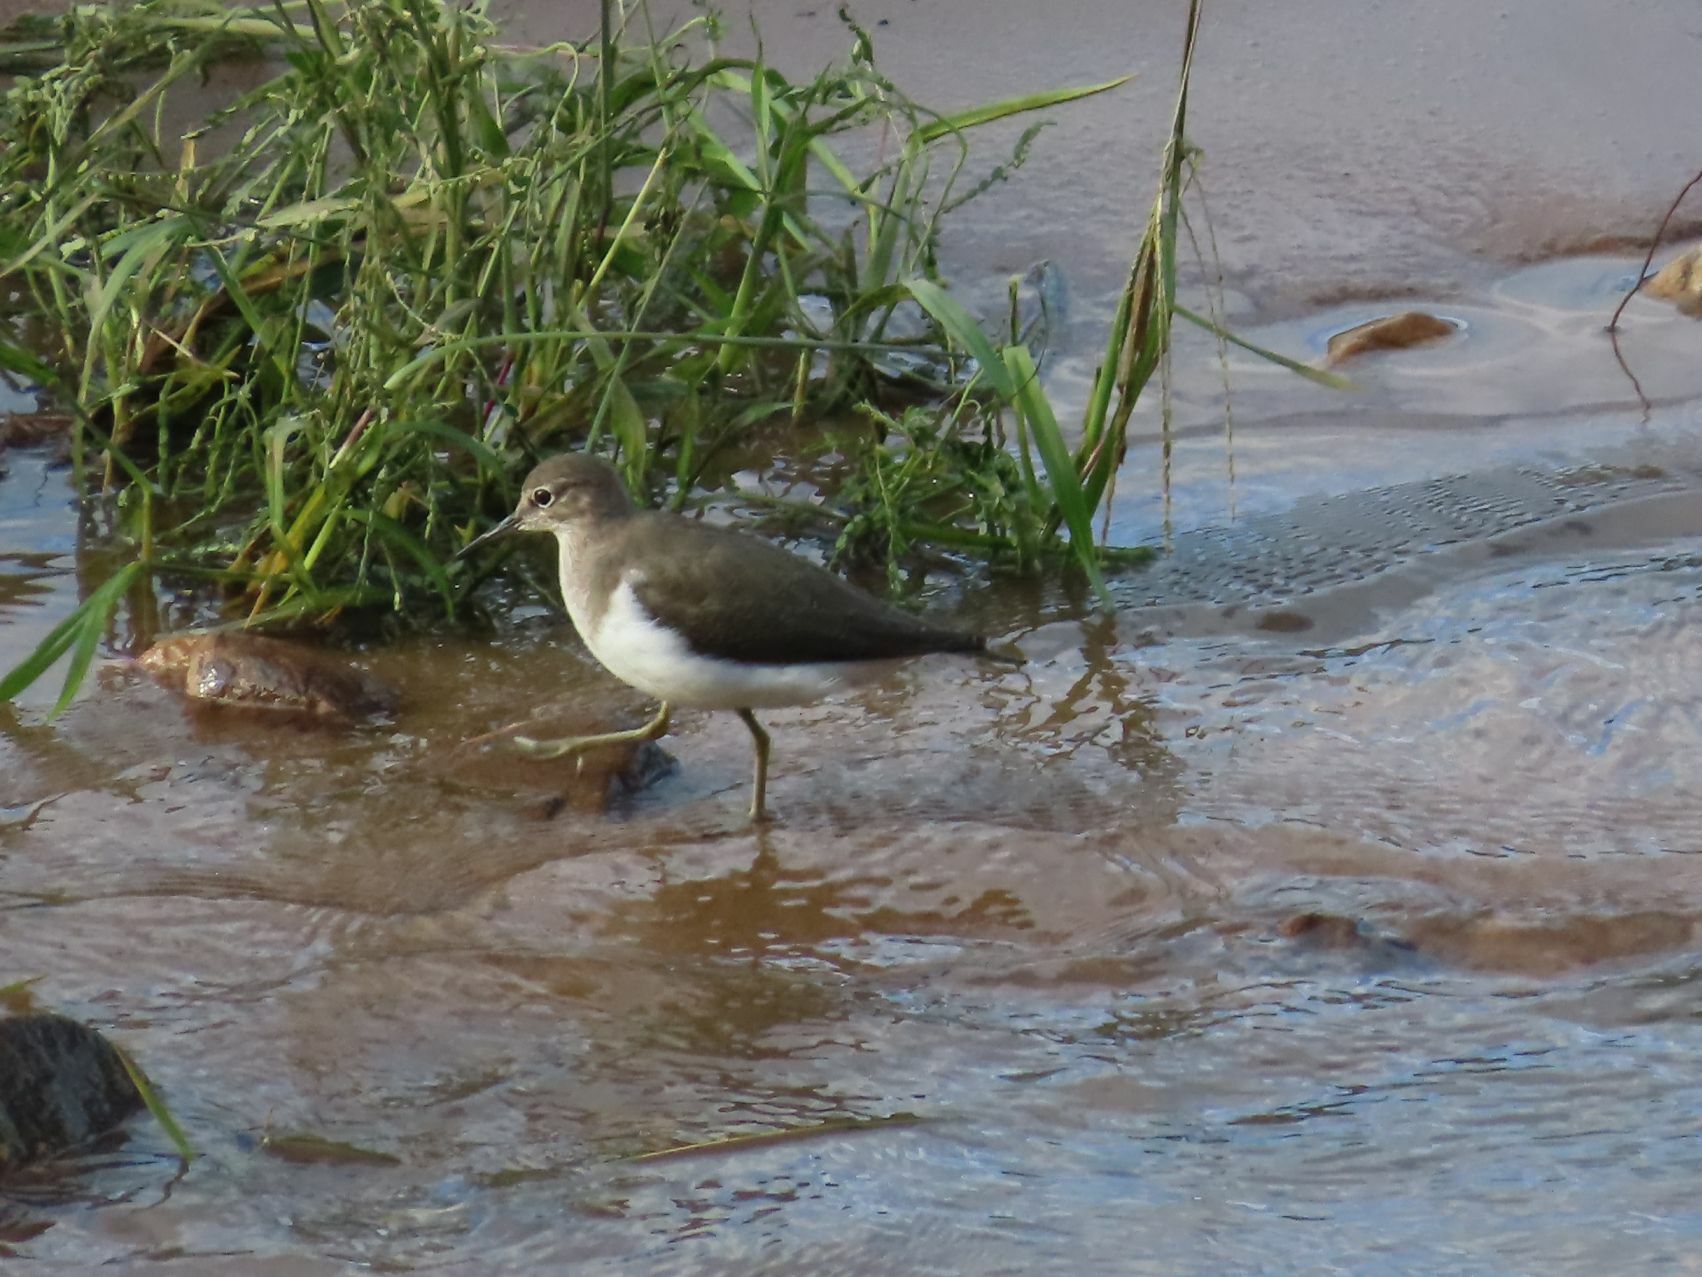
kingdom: Animalia
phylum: Chordata
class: Aves
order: Charadriiformes
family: Scolopacidae
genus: Actitis
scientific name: Actitis hypoleucos
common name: Common sandpiper
